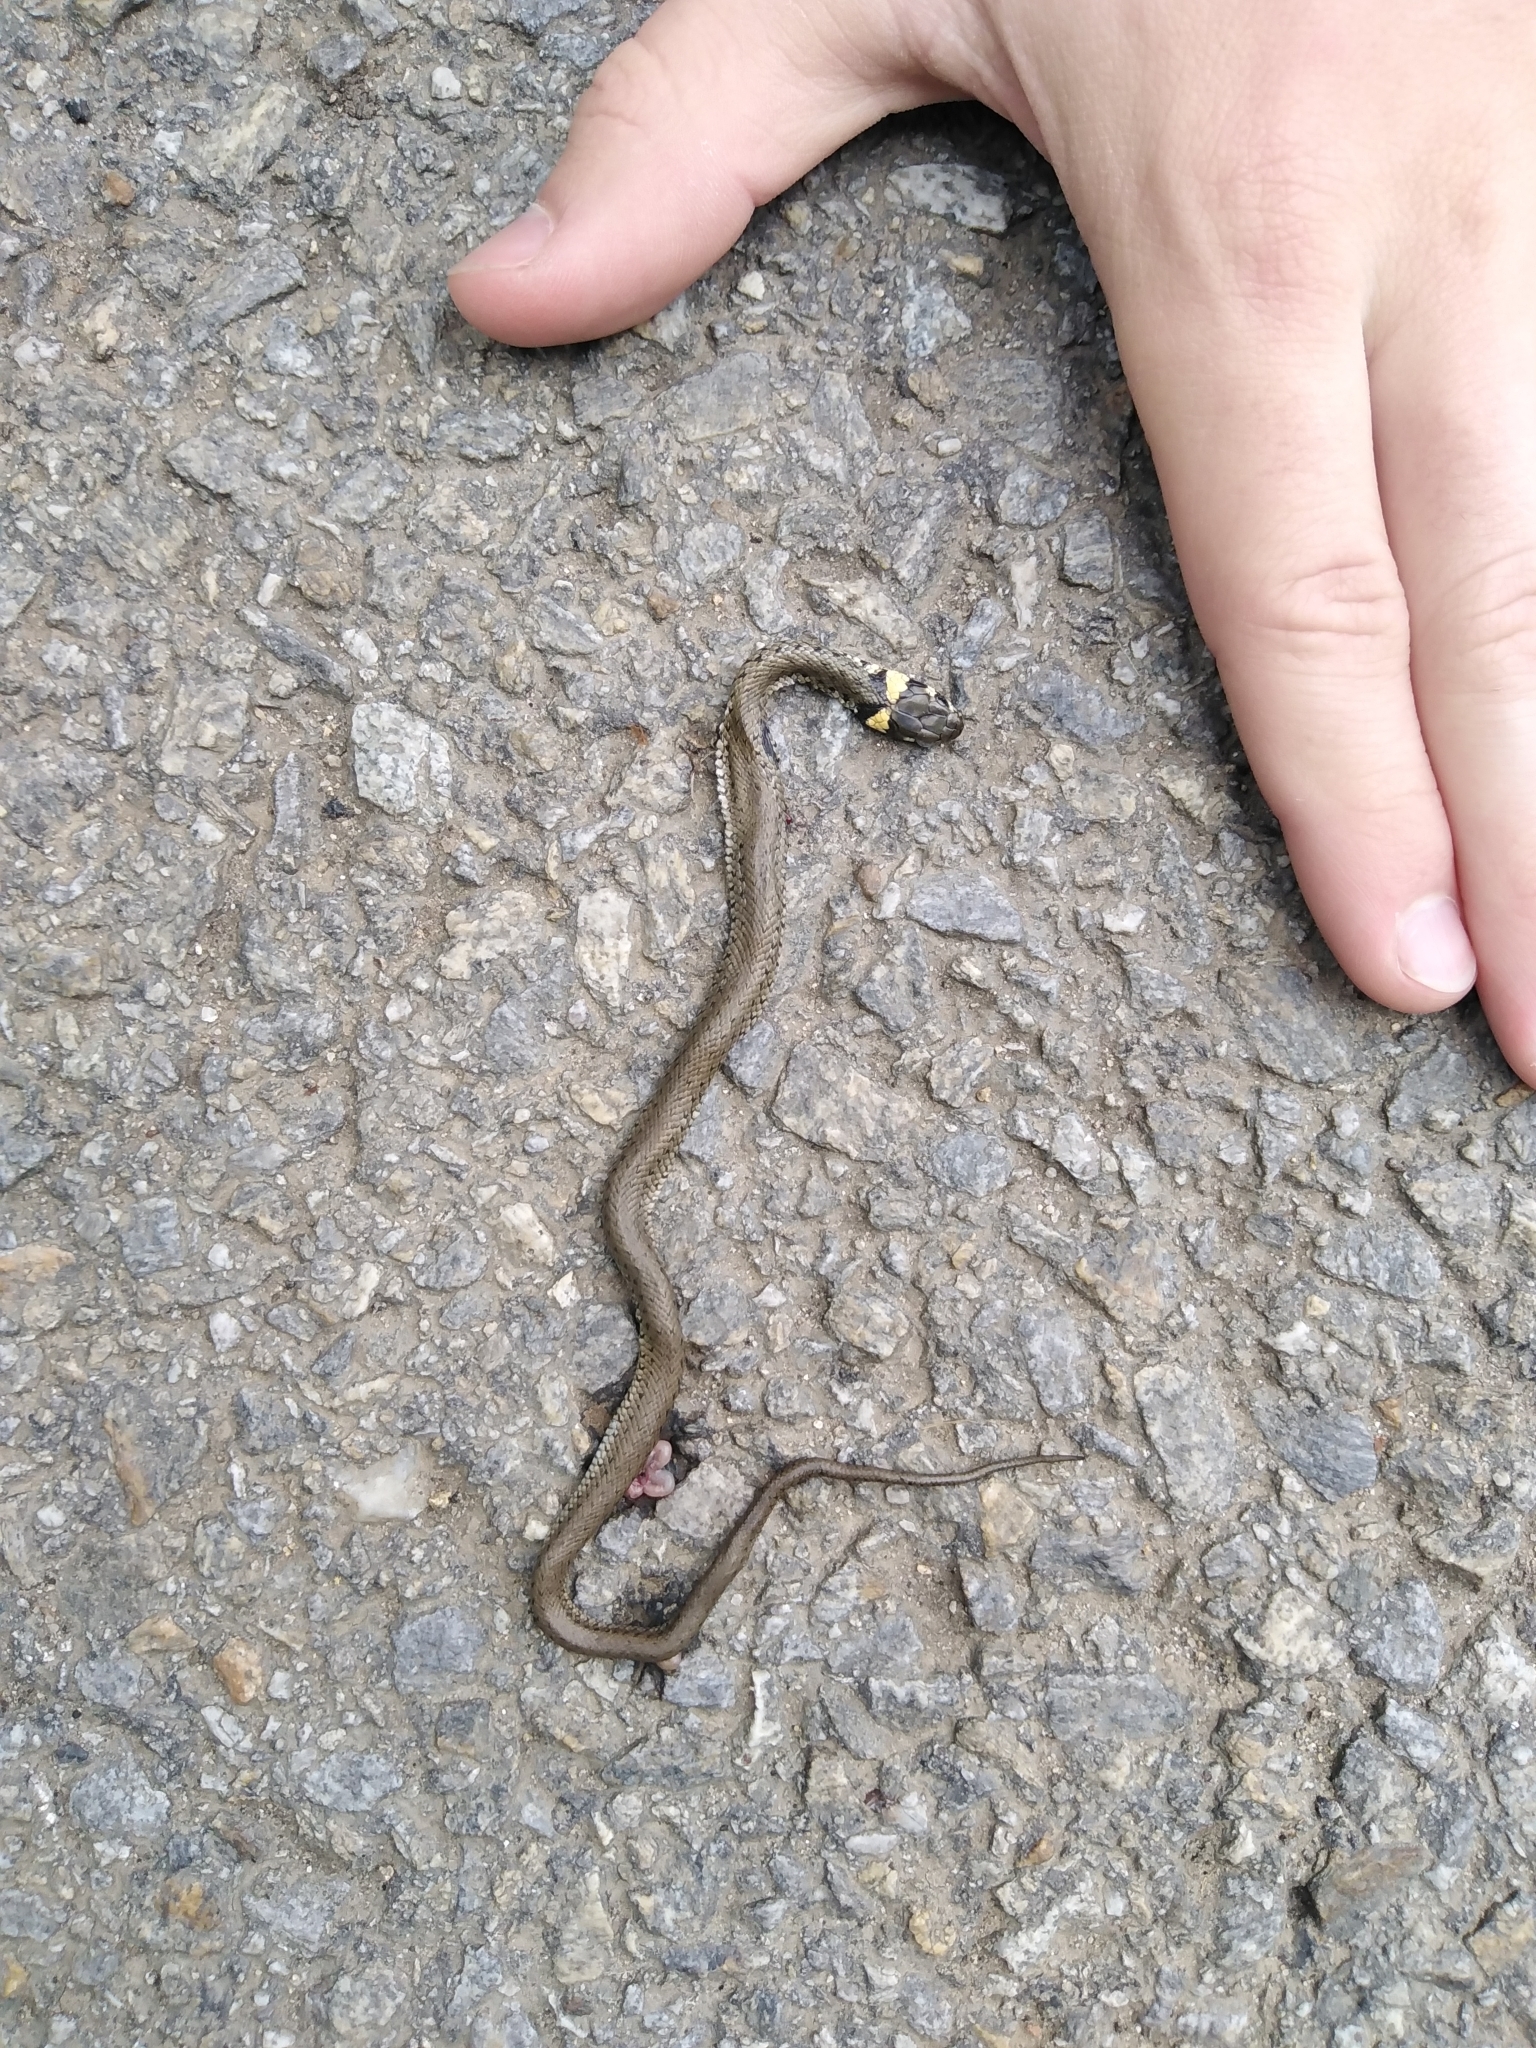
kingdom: Animalia
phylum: Chordata
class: Squamata
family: Colubridae
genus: Natrix
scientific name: Natrix natrix
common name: Grass snake
